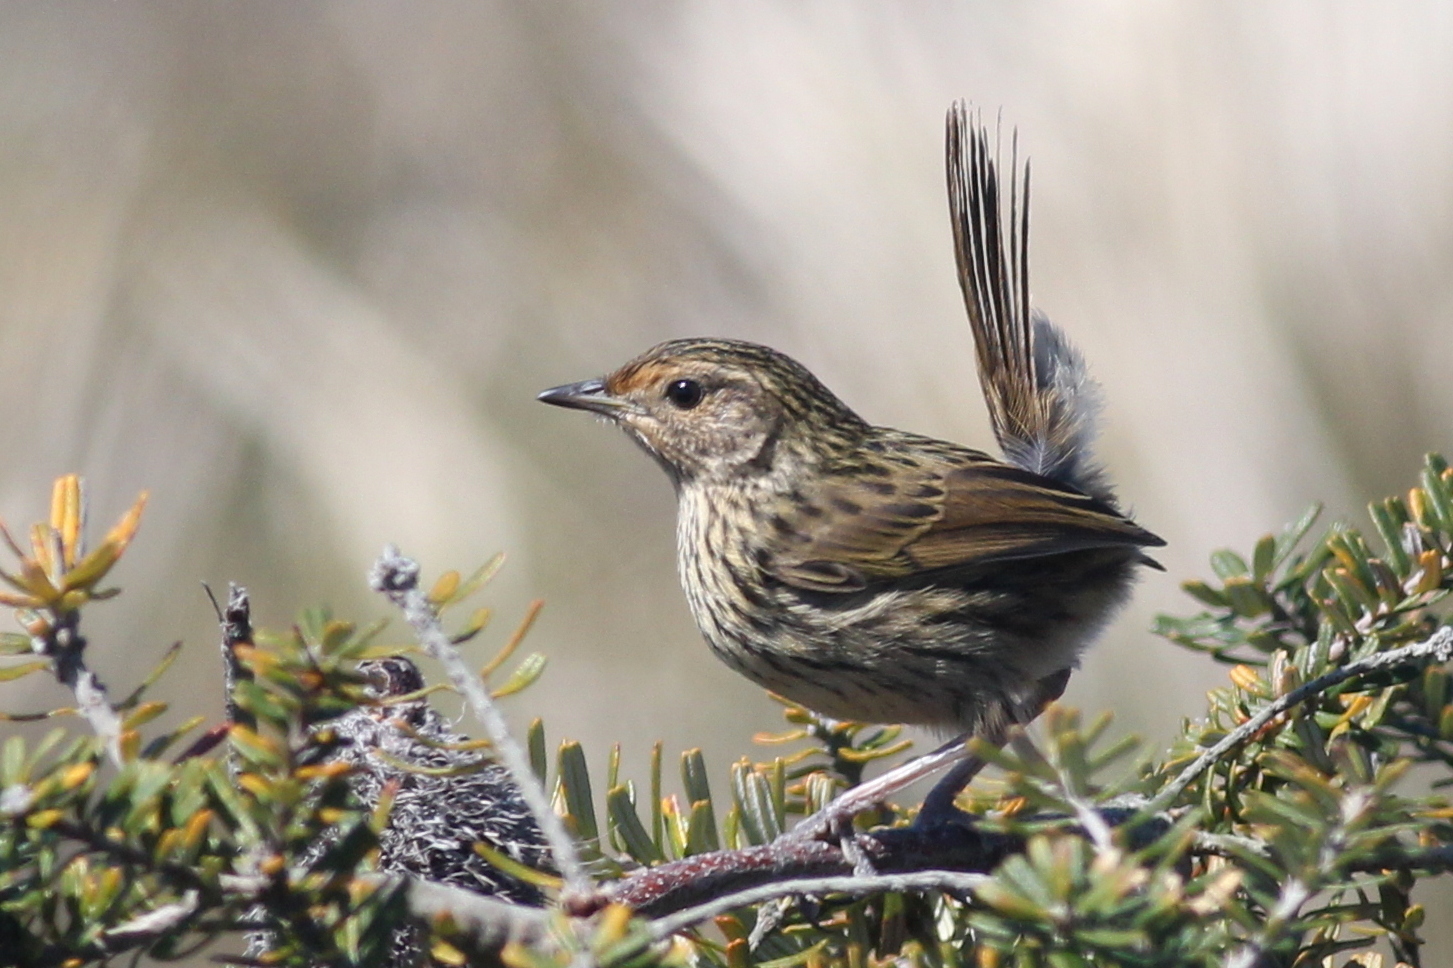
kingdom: Animalia
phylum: Chordata
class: Aves
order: Passeriformes
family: Acanthizidae
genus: Calamanthus
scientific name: Calamanthus fuliginosus
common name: Striated fieldwren
